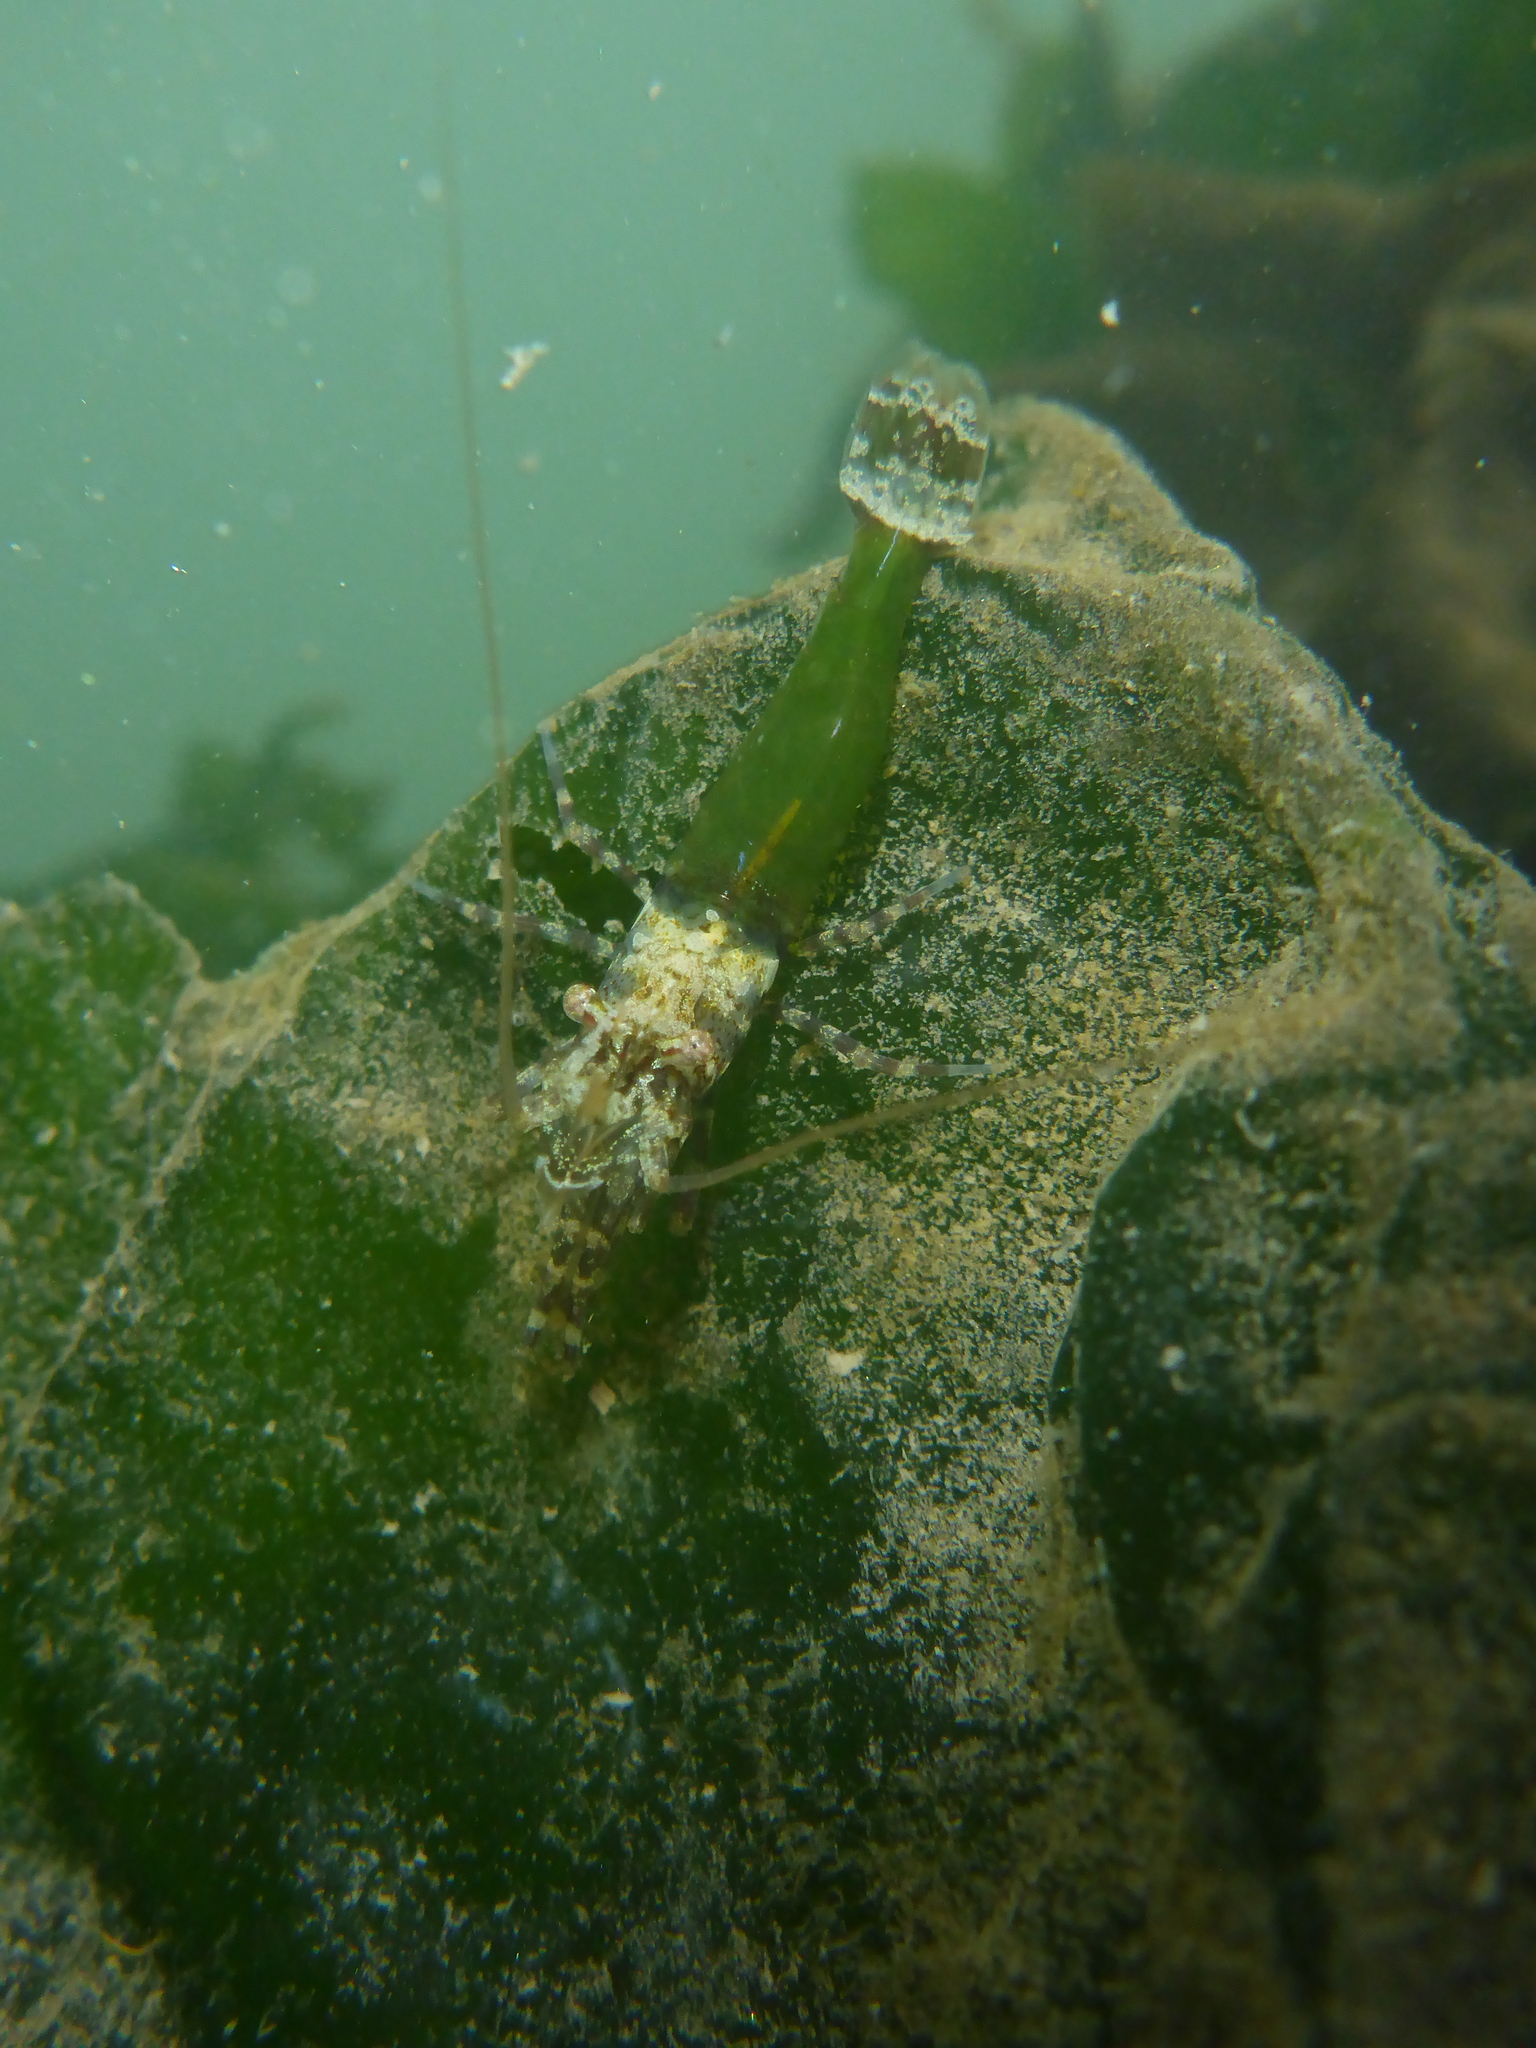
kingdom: Animalia
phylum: Arthropoda
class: Malacostraca
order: Decapoda
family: Thoridae
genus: Heptacarpus
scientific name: Heptacarpus sitchensis
